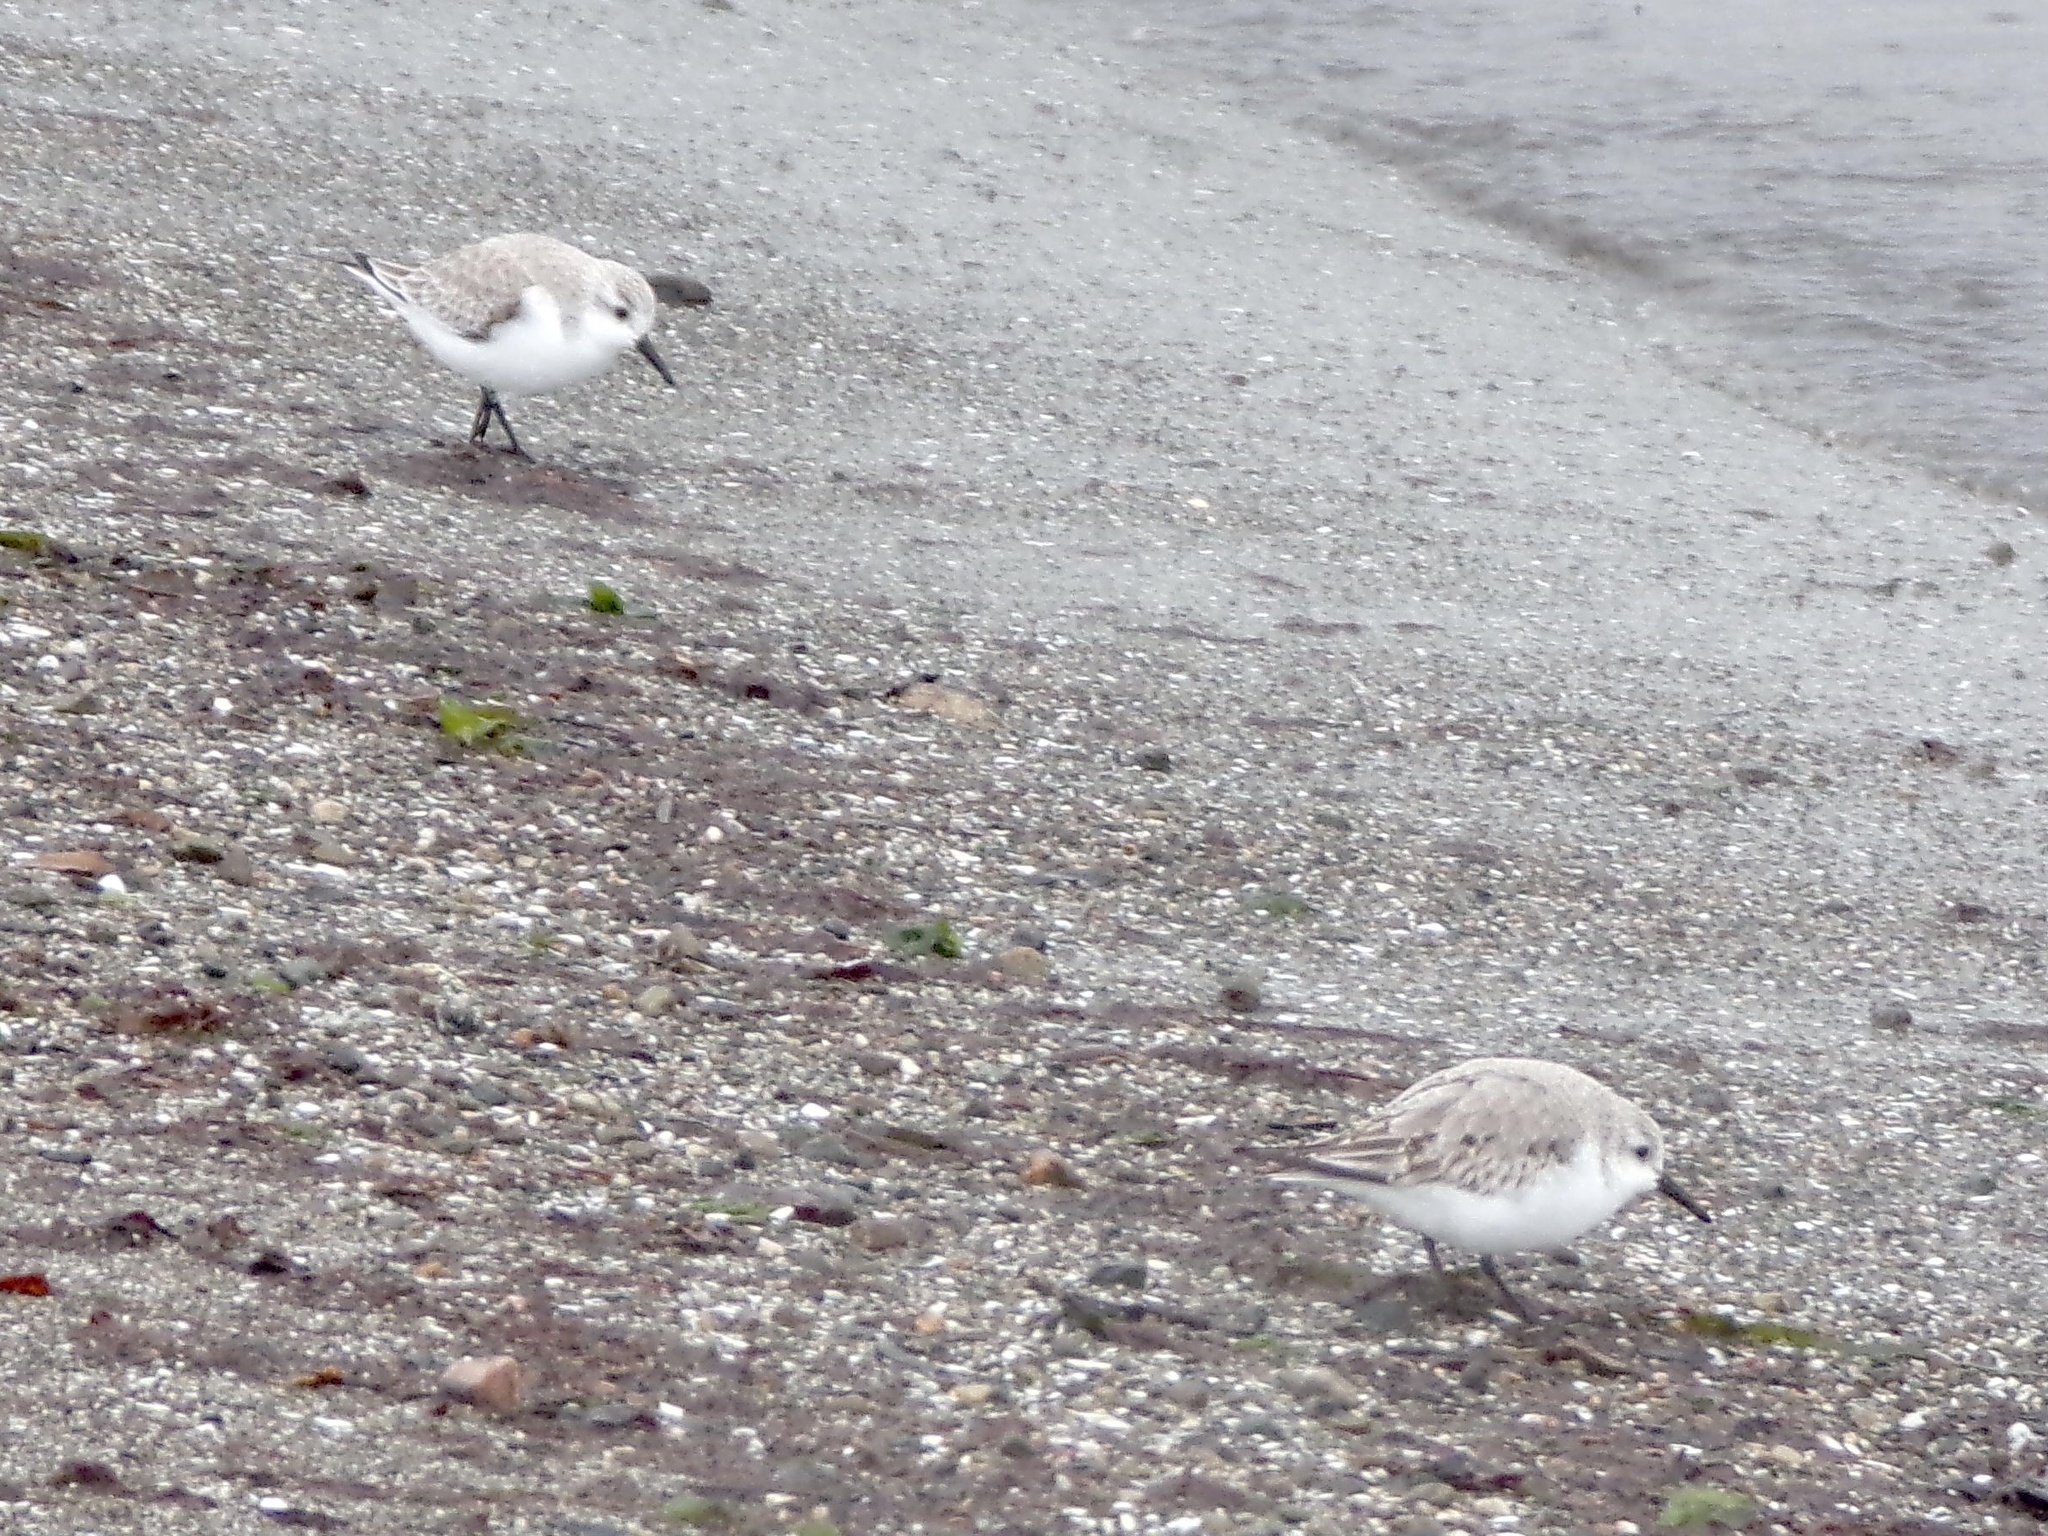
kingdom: Animalia
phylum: Chordata
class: Aves
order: Charadriiformes
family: Scolopacidae
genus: Calidris
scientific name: Calidris alba
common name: Sanderling
